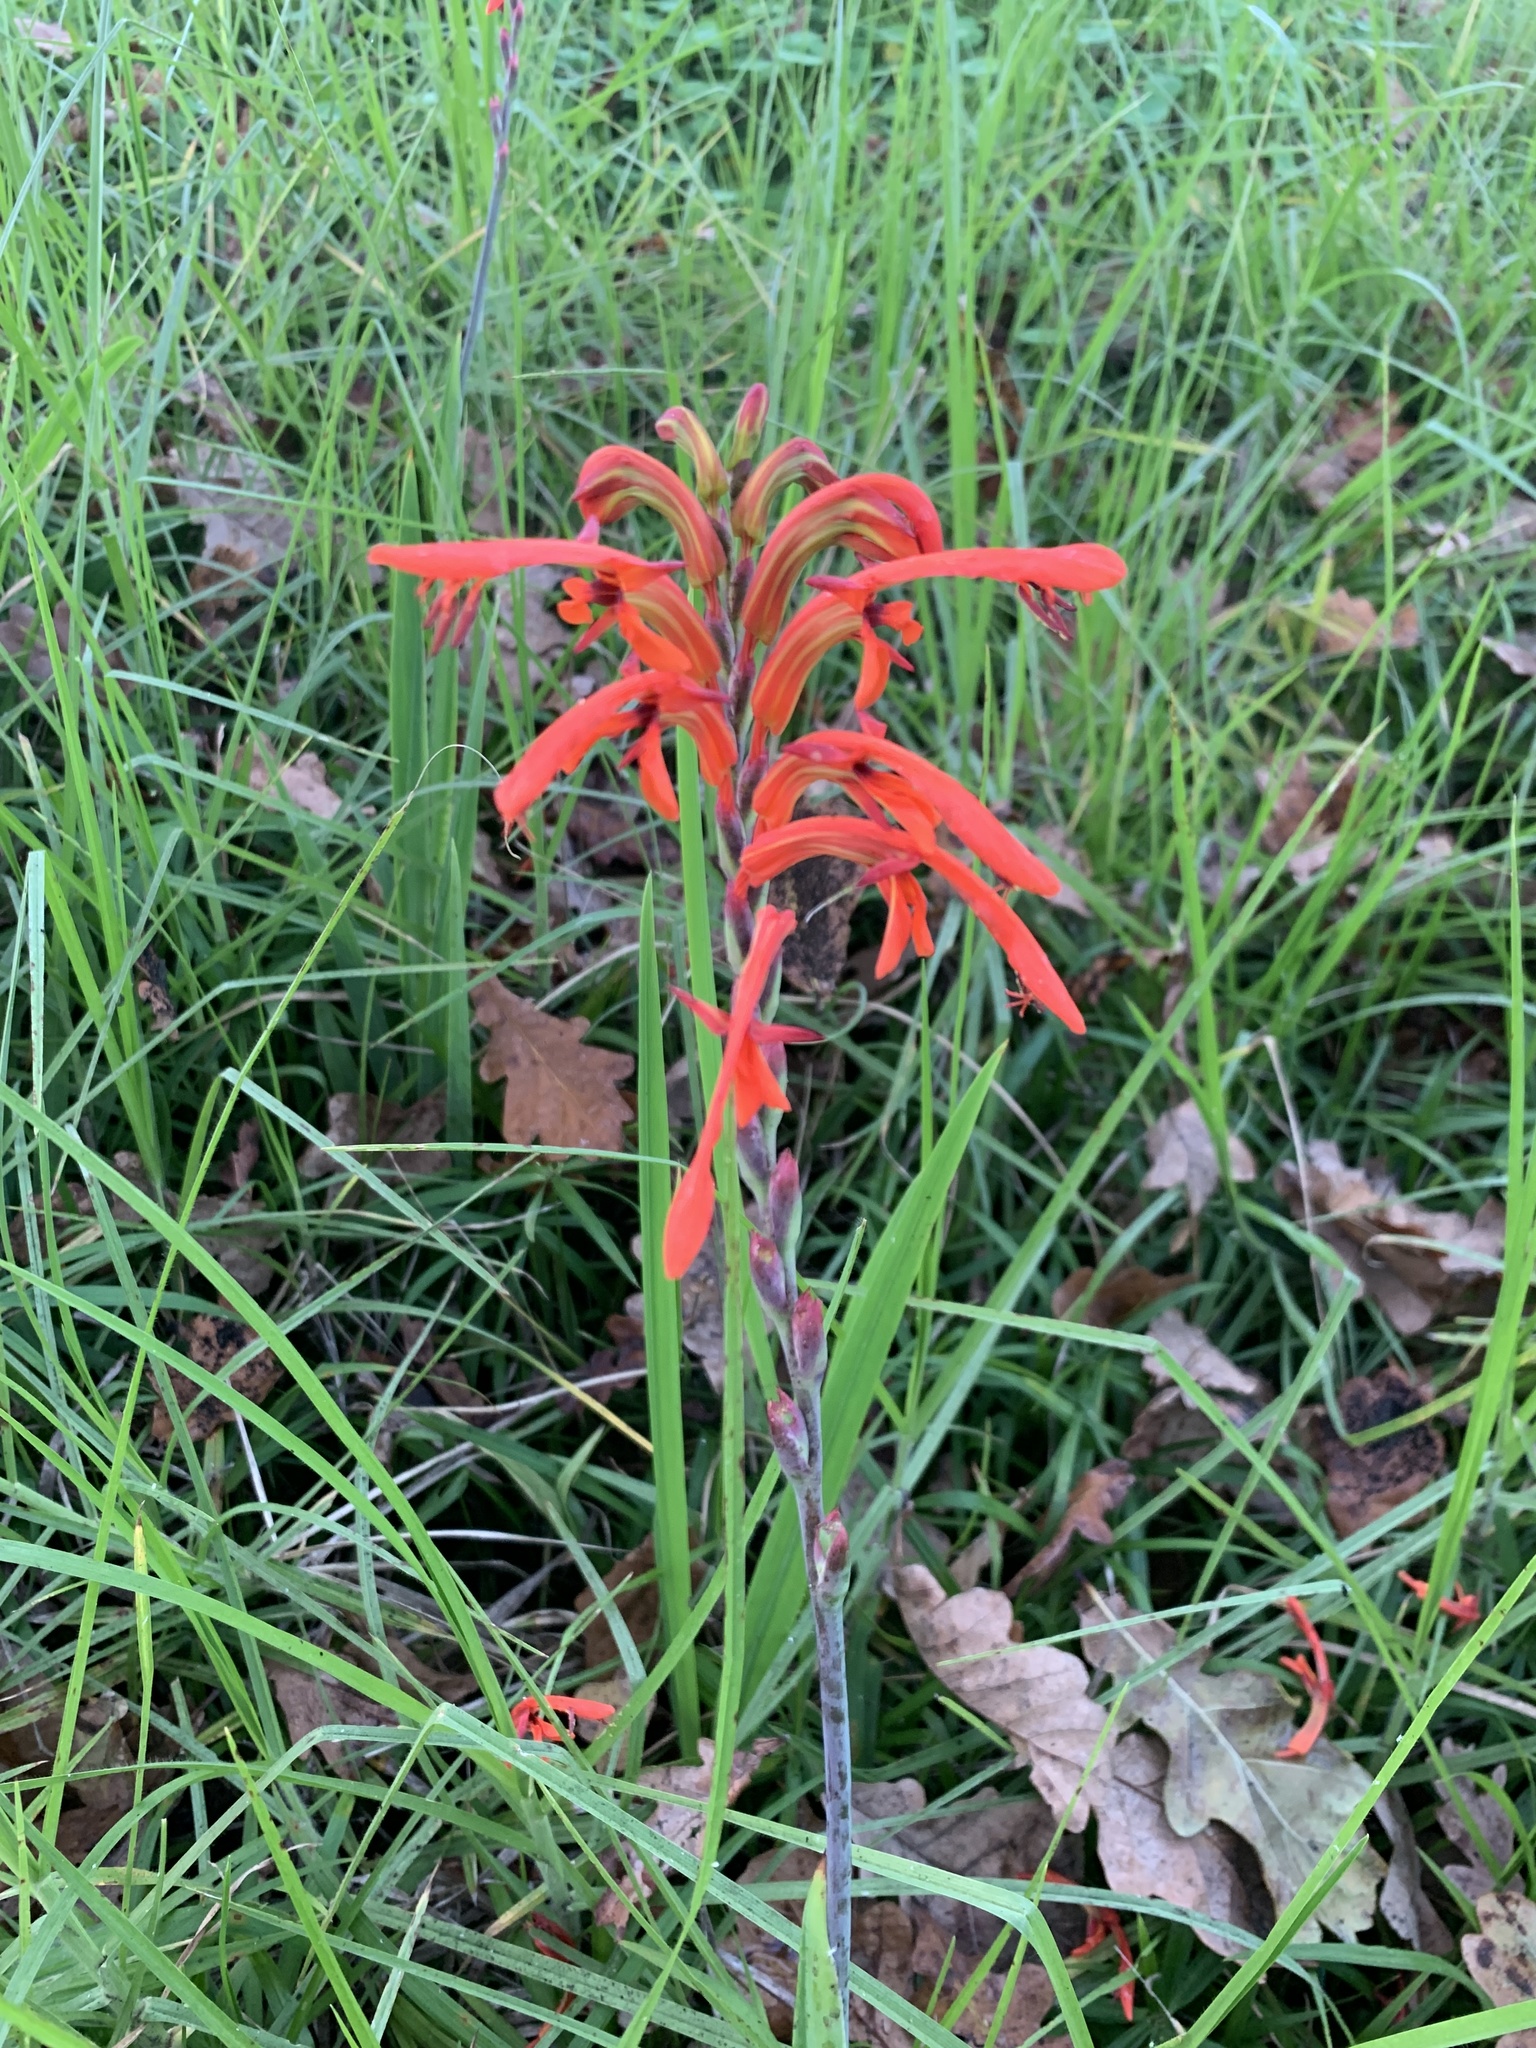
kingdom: Plantae
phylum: Tracheophyta
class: Liliopsida
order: Asparagales
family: Iridaceae
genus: Chasmanthe
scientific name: Chasmanthe aethiopica
